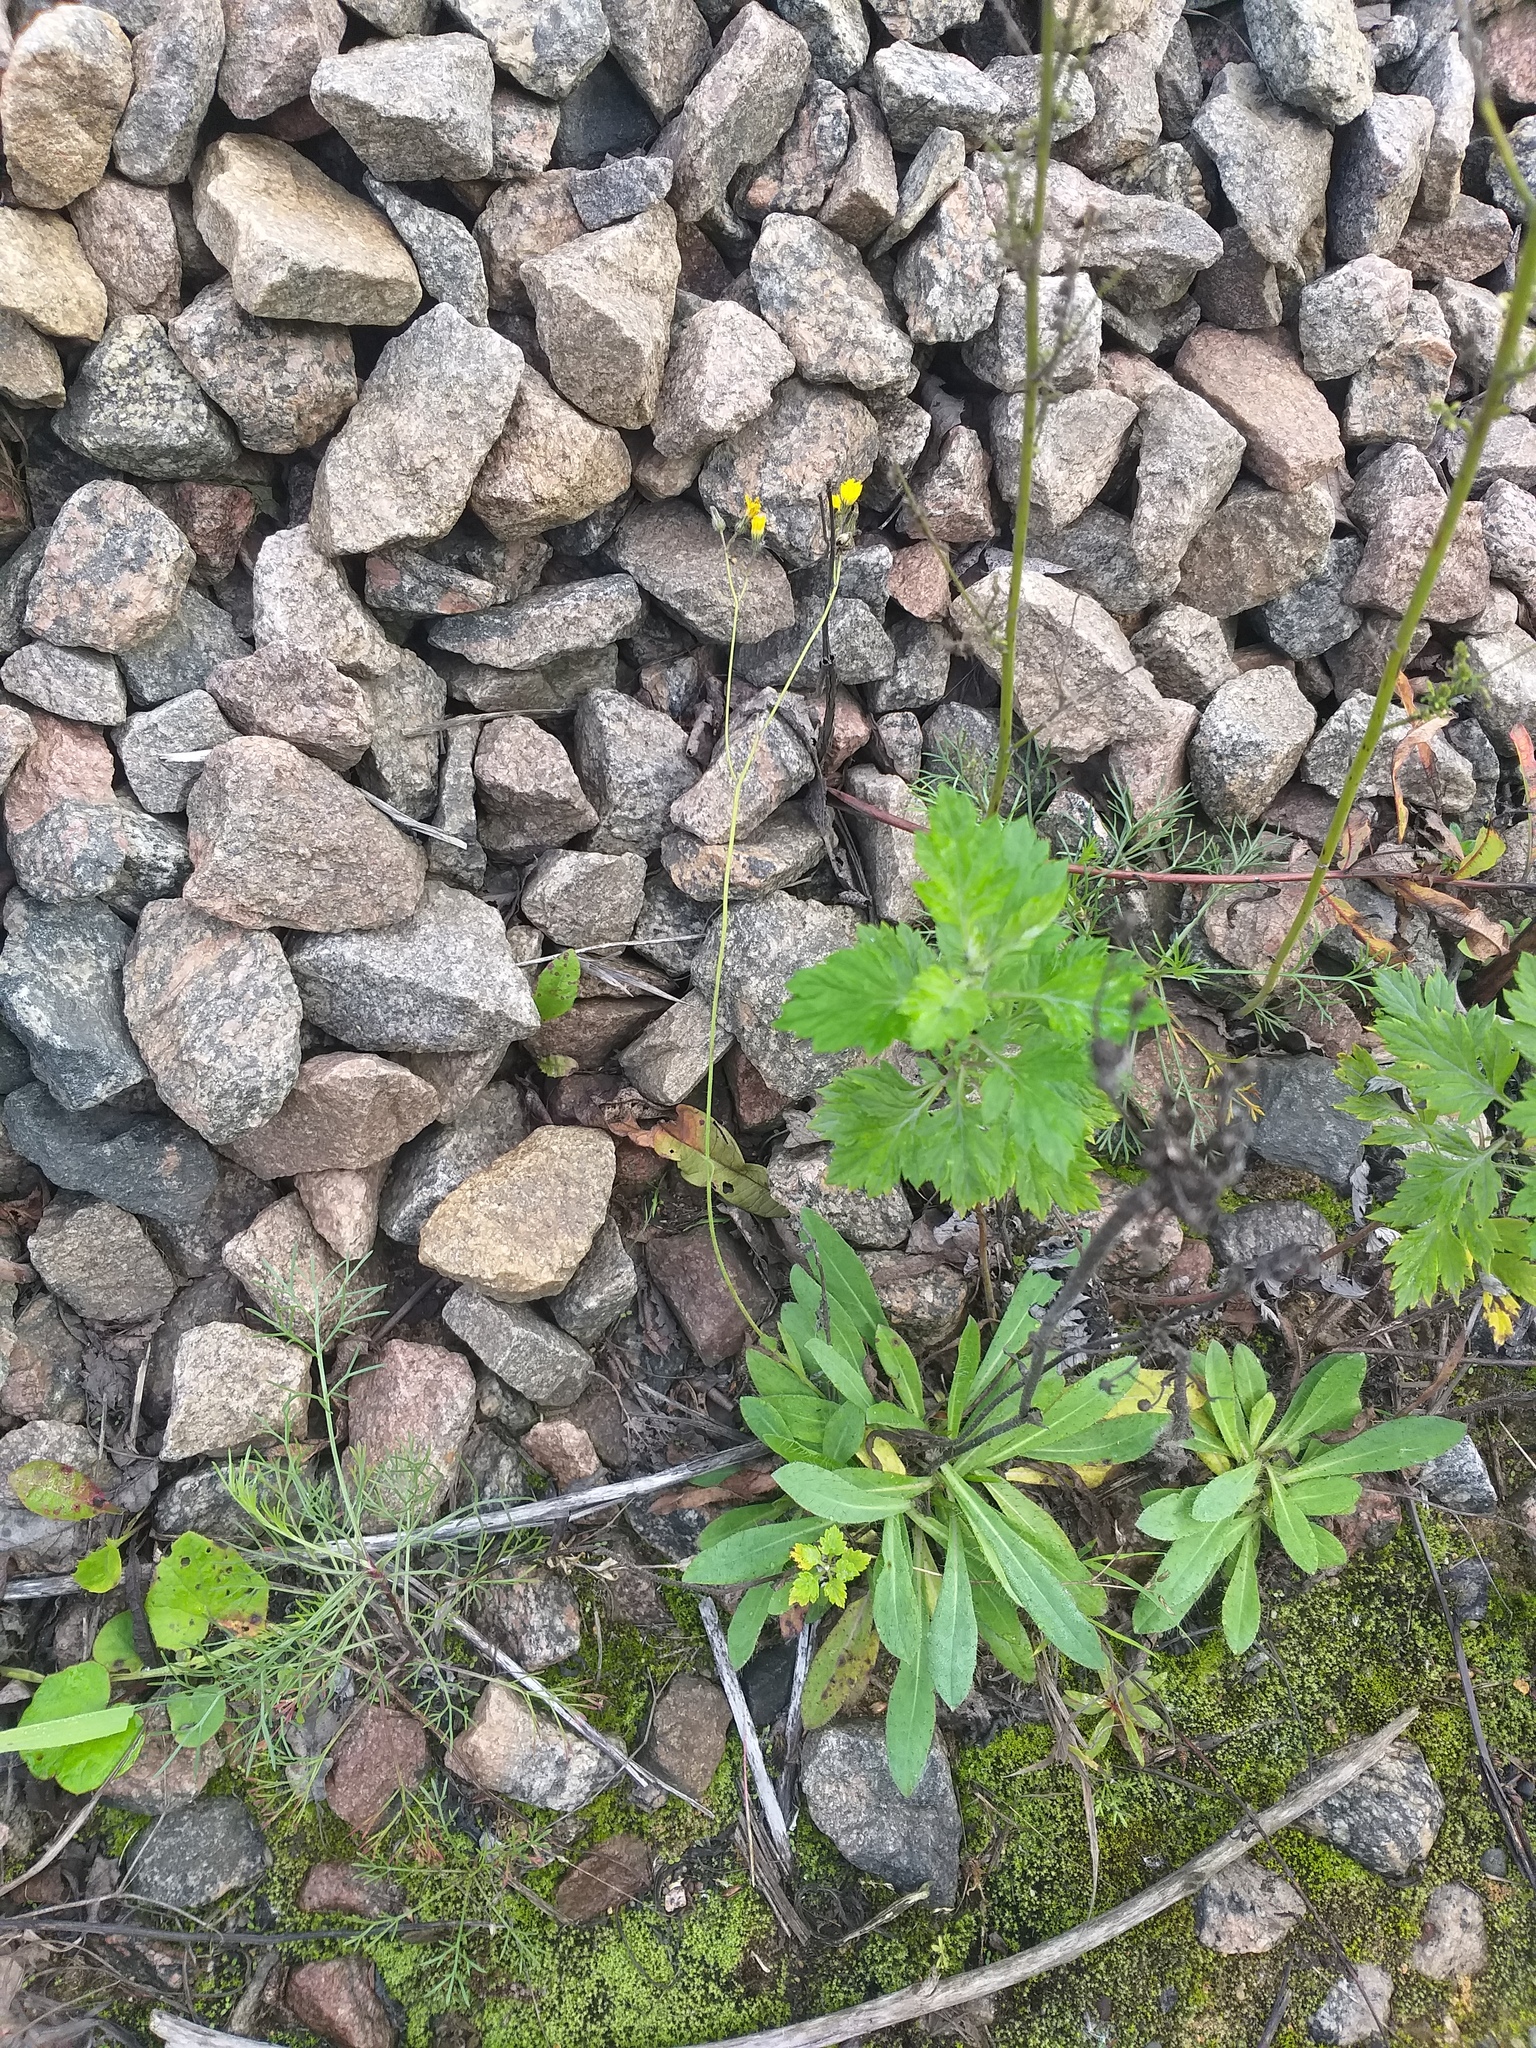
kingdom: Plantae
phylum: Tracheophyta
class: Magnoliopsida
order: Asterales
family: Asteraceae
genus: Pilosella
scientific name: Pilosella
